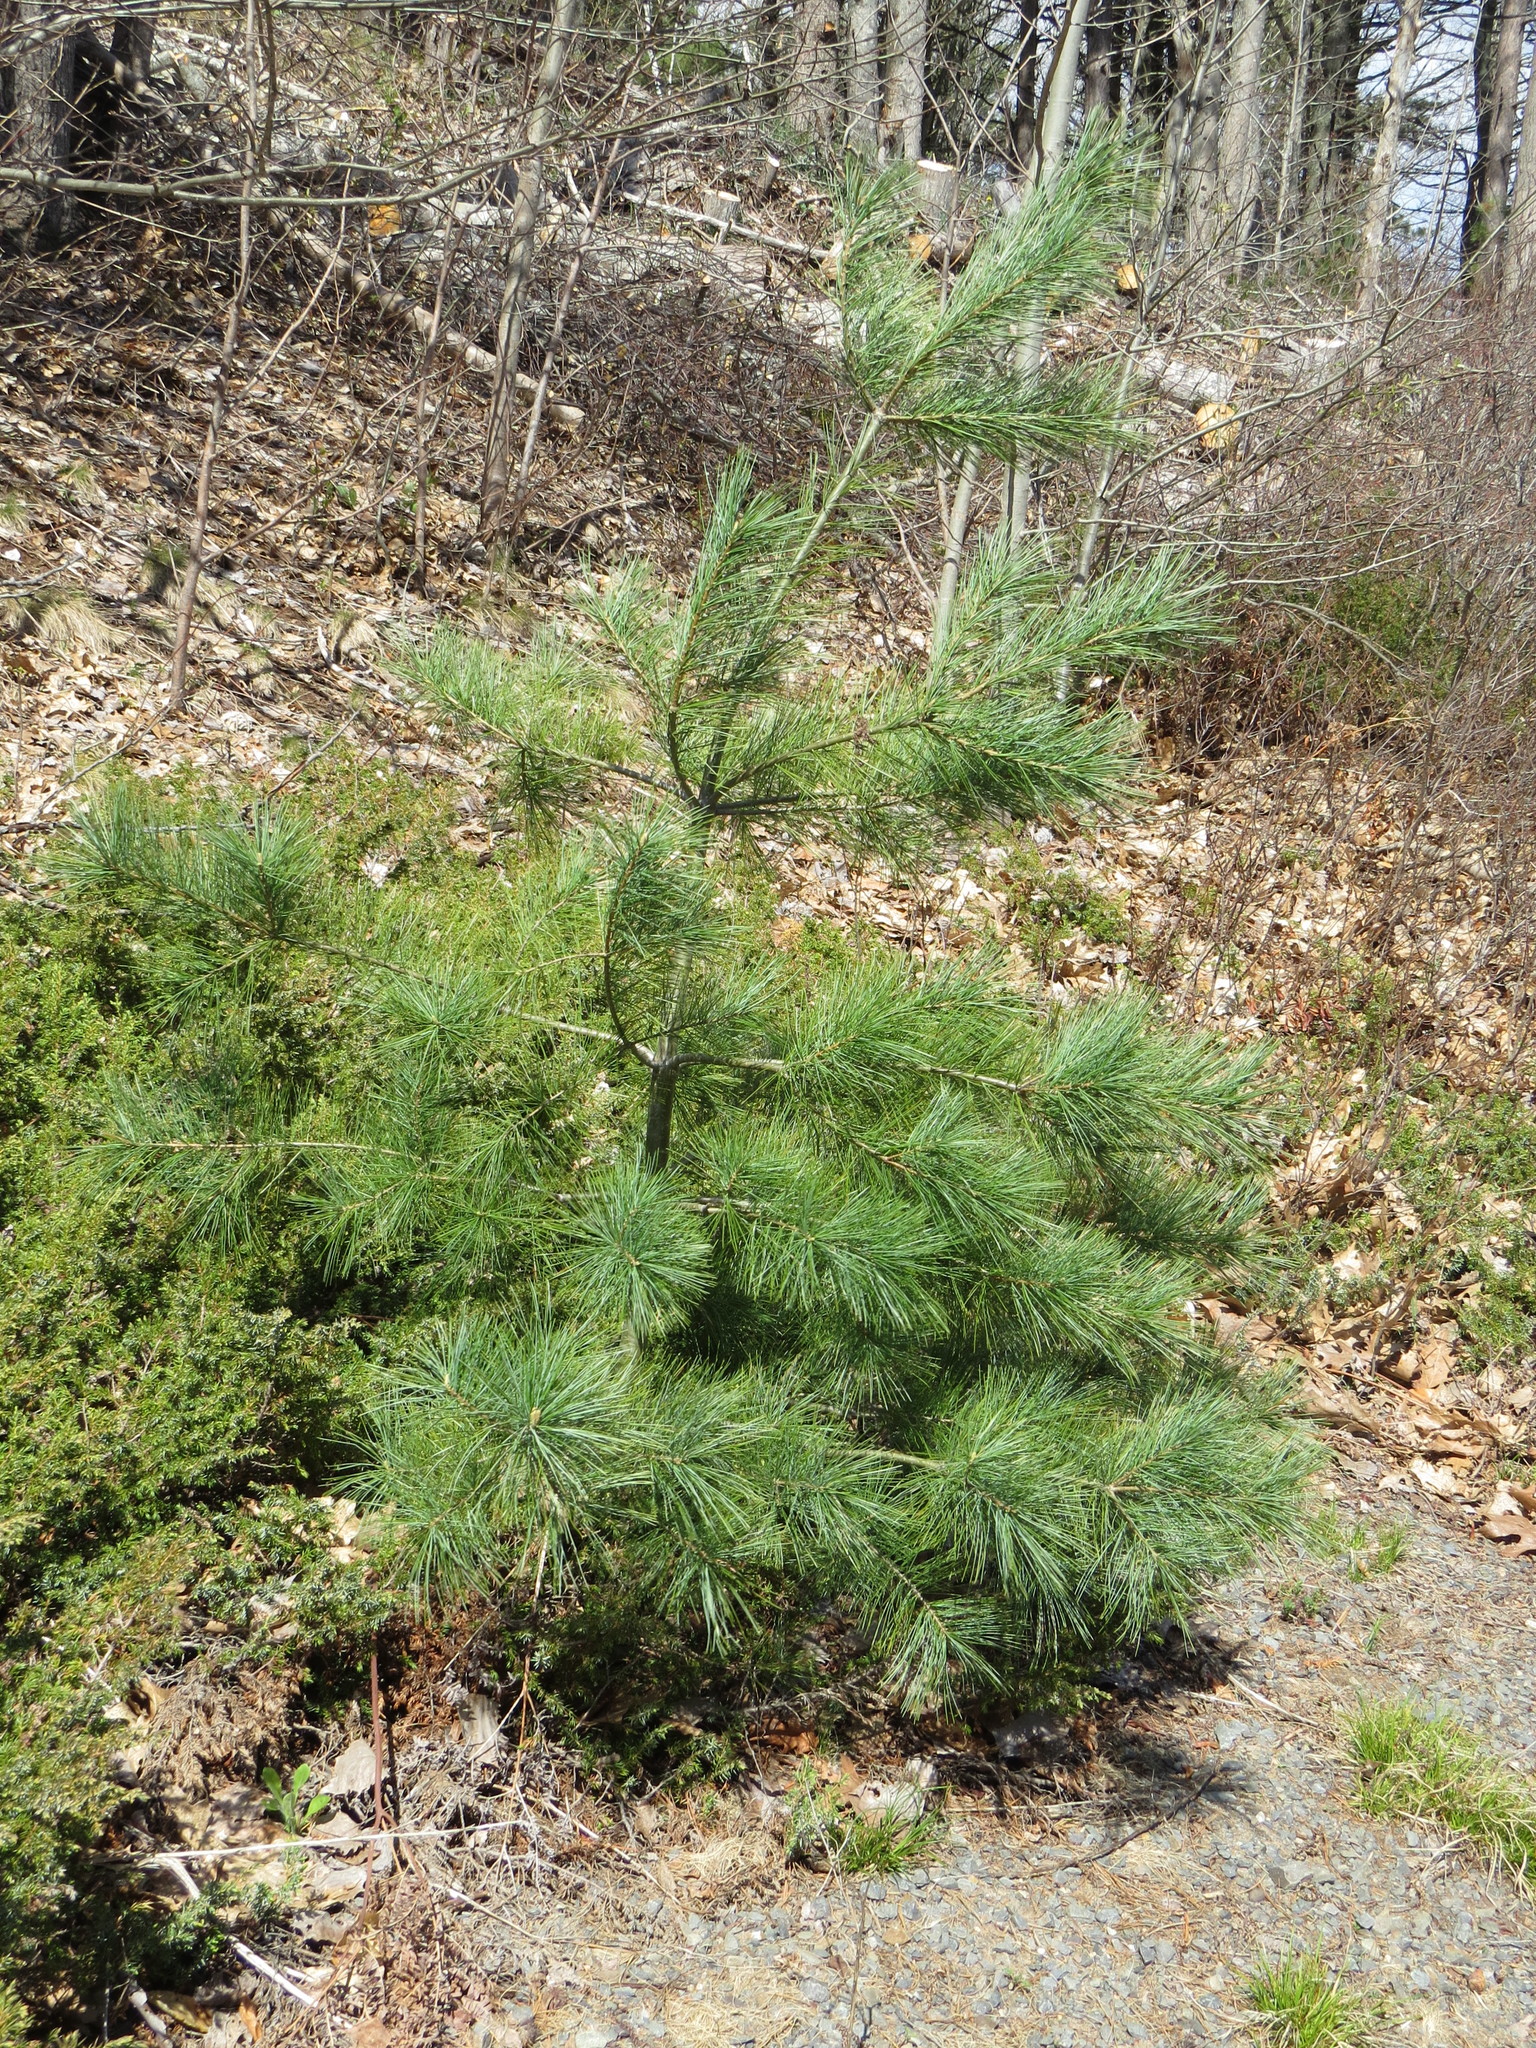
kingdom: Plantae
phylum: Tracheophyta
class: Pinopsida
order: Pinales
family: Pinaceae
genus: Pinus
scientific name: Pinus strobus
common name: Weymouth pine
